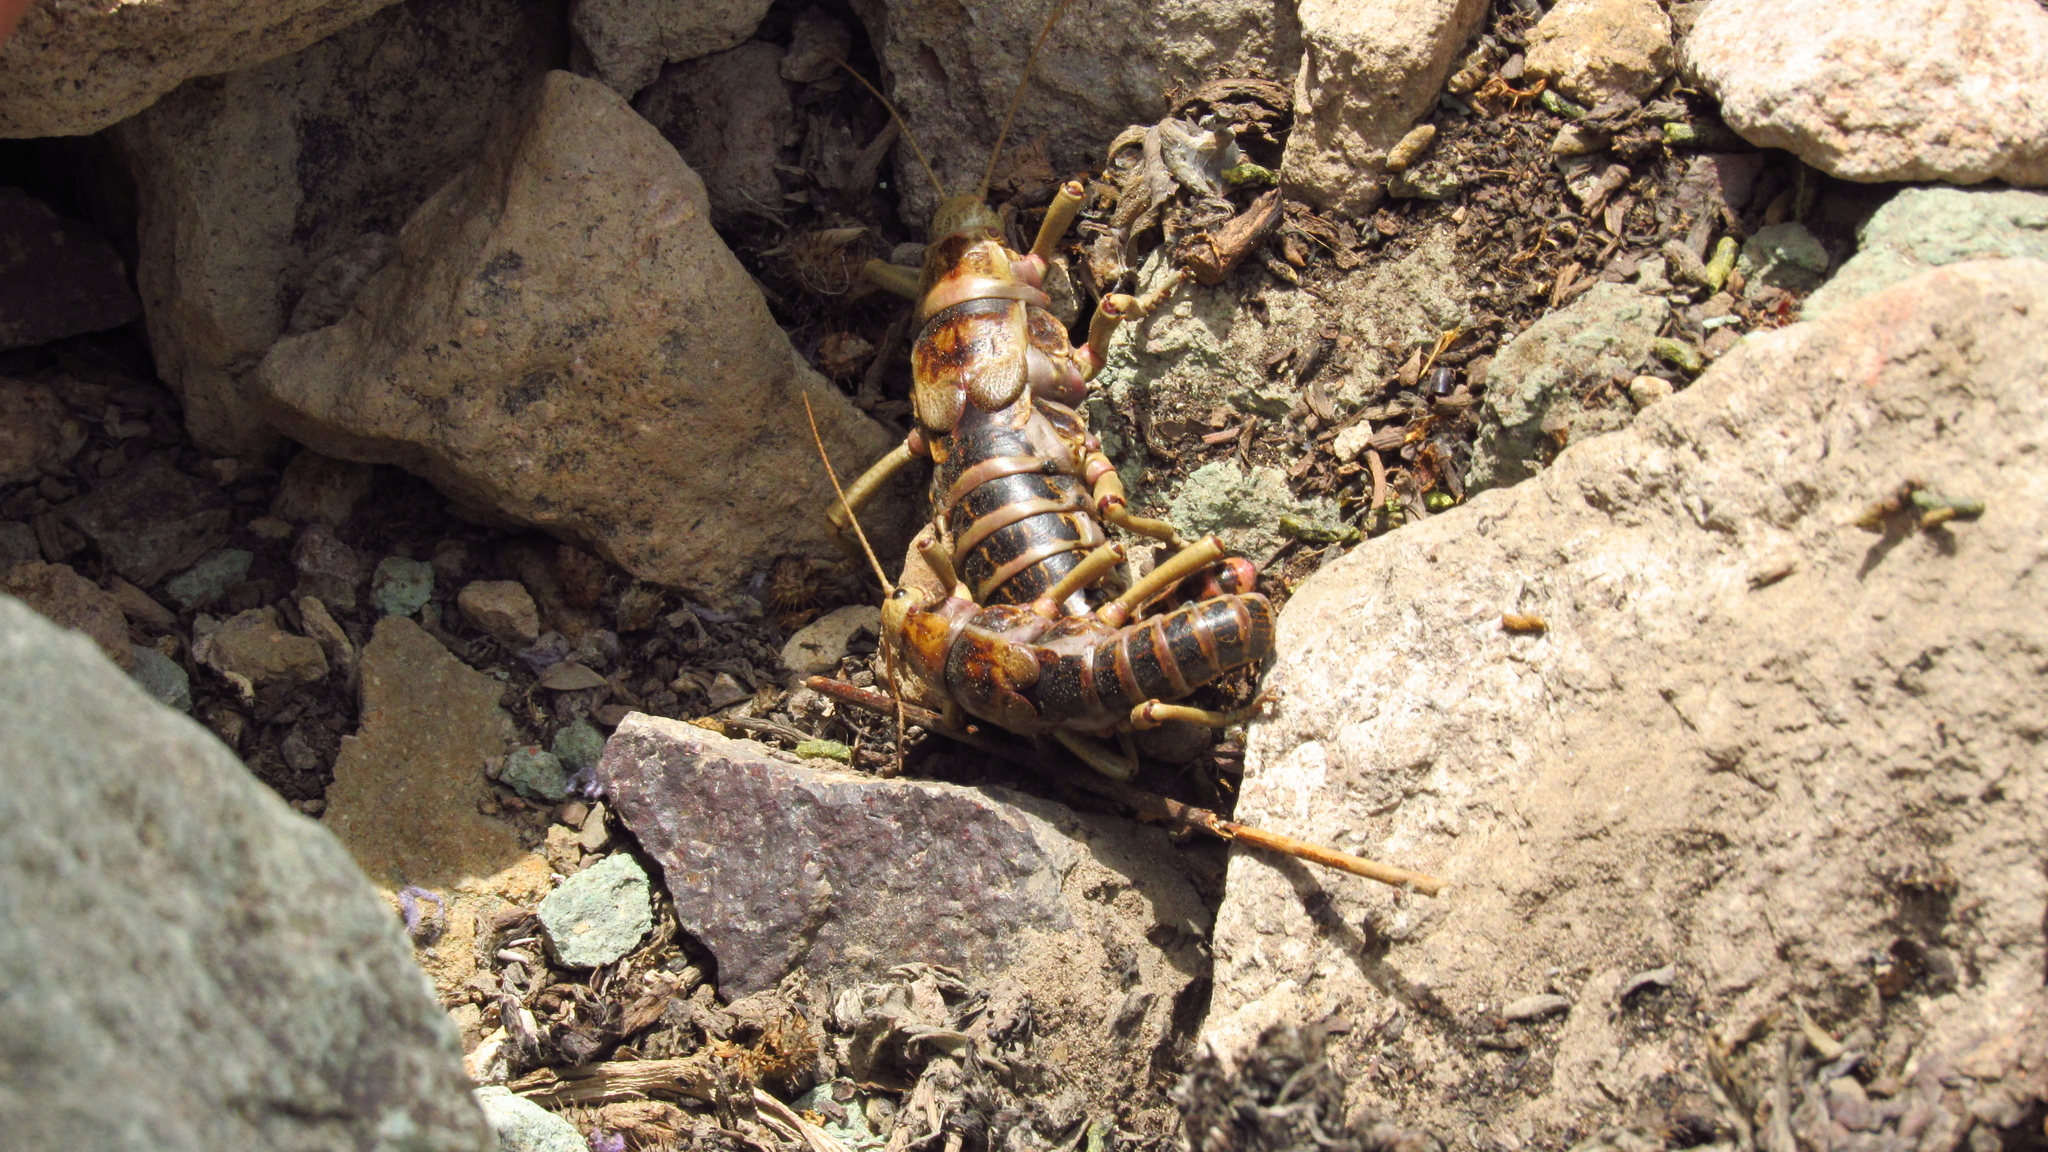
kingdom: Animalia
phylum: Arthropoda
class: Insecta
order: Phasmida
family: Agathemeridae
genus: Agathemera
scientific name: Agathemera crassa
